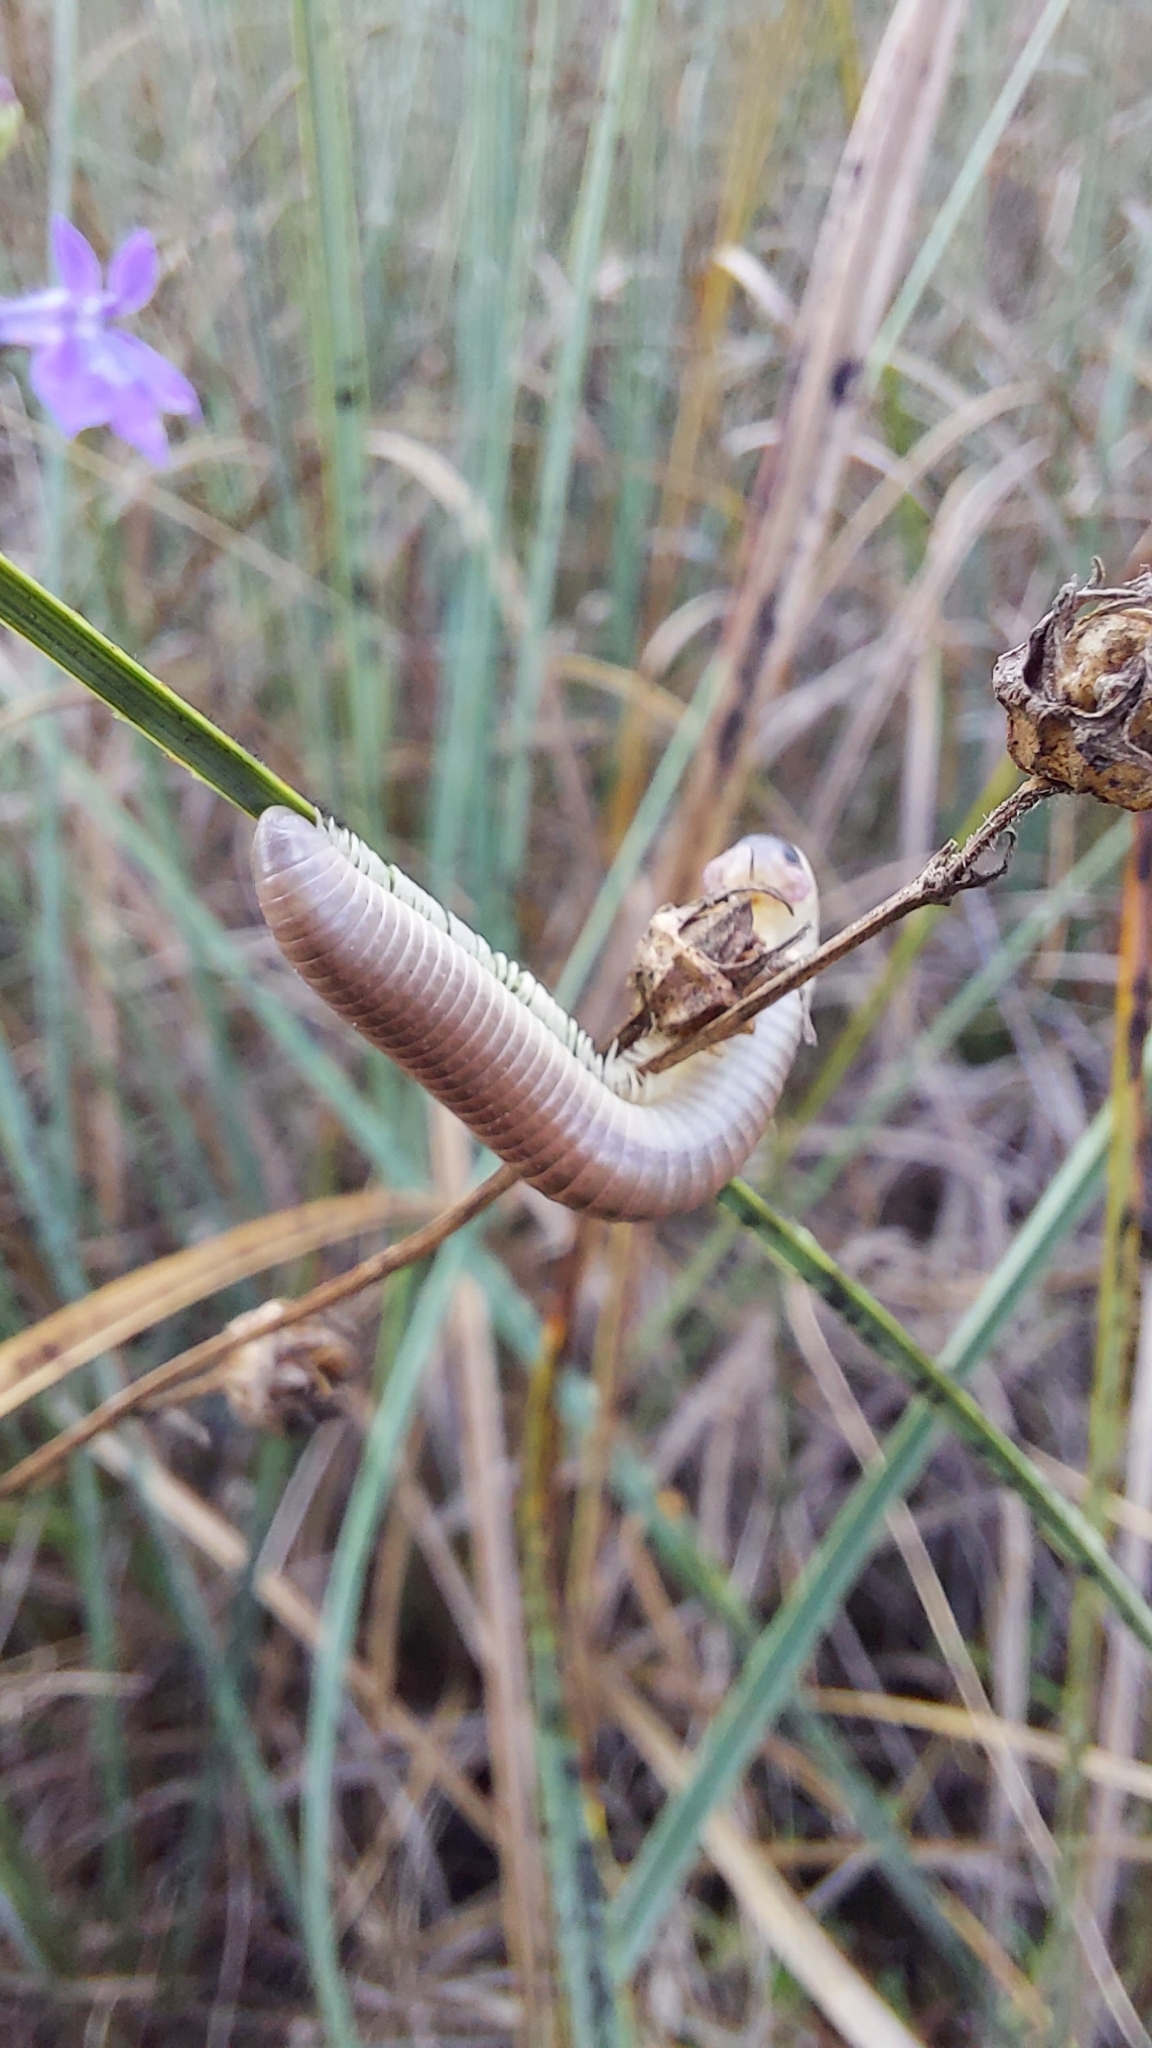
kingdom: Animalia
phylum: Arthropoda
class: Diplopoda
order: Spirobolida
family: Spirobolidae
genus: Chicobolus
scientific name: Chicobolus spinigerus
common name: Florida ivory millipede
